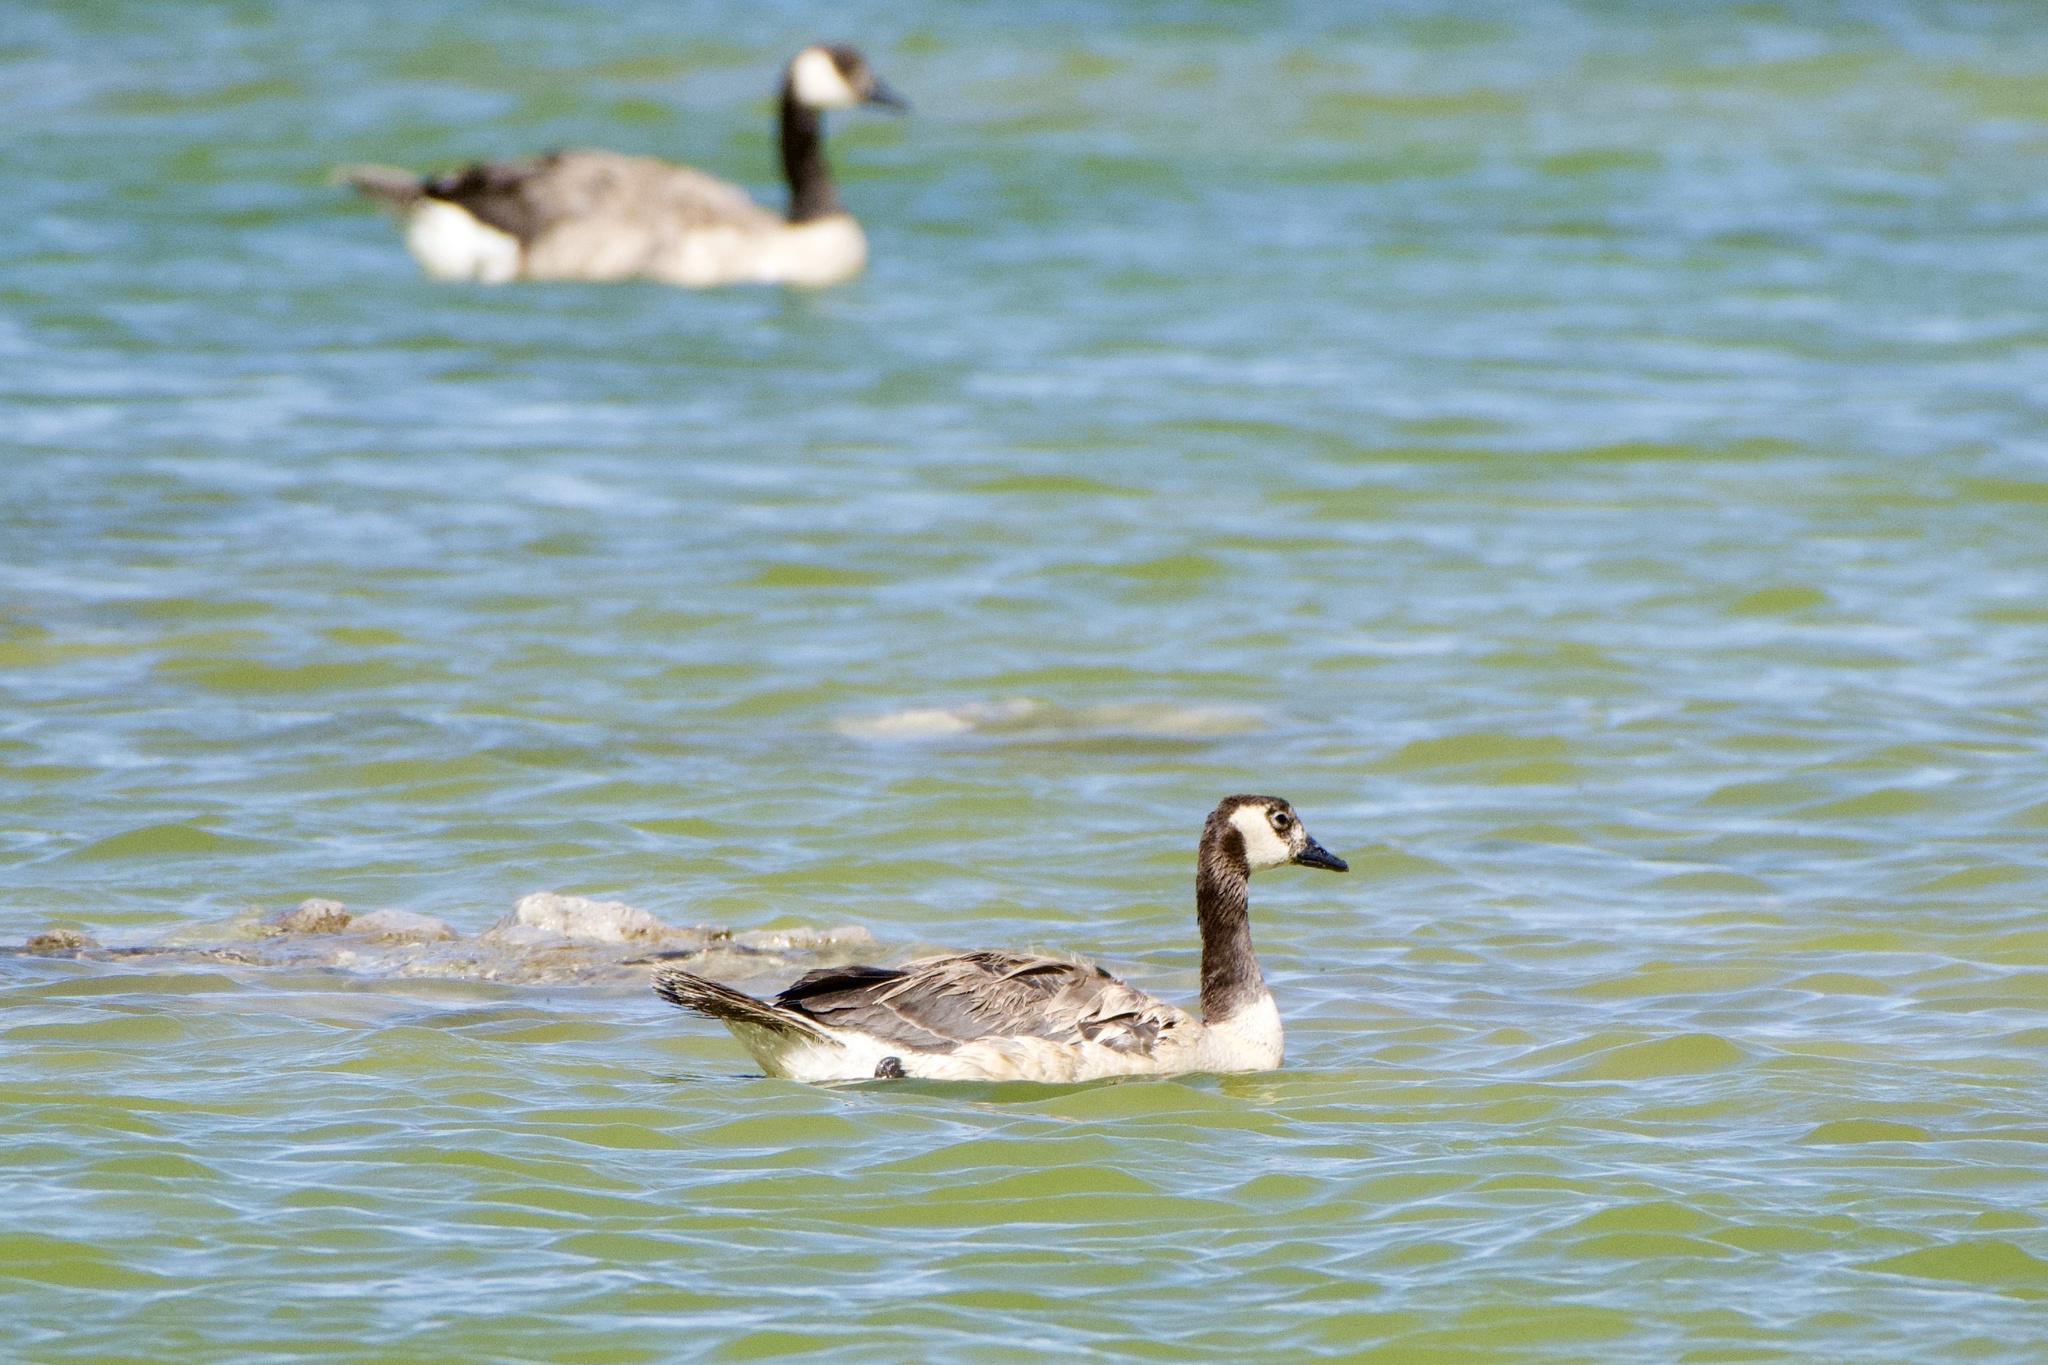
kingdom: Animalia
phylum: Chordata
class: Aves
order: Anseriformes
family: Anatidae
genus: Branta
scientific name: Branta canadensis
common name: Canada goose
